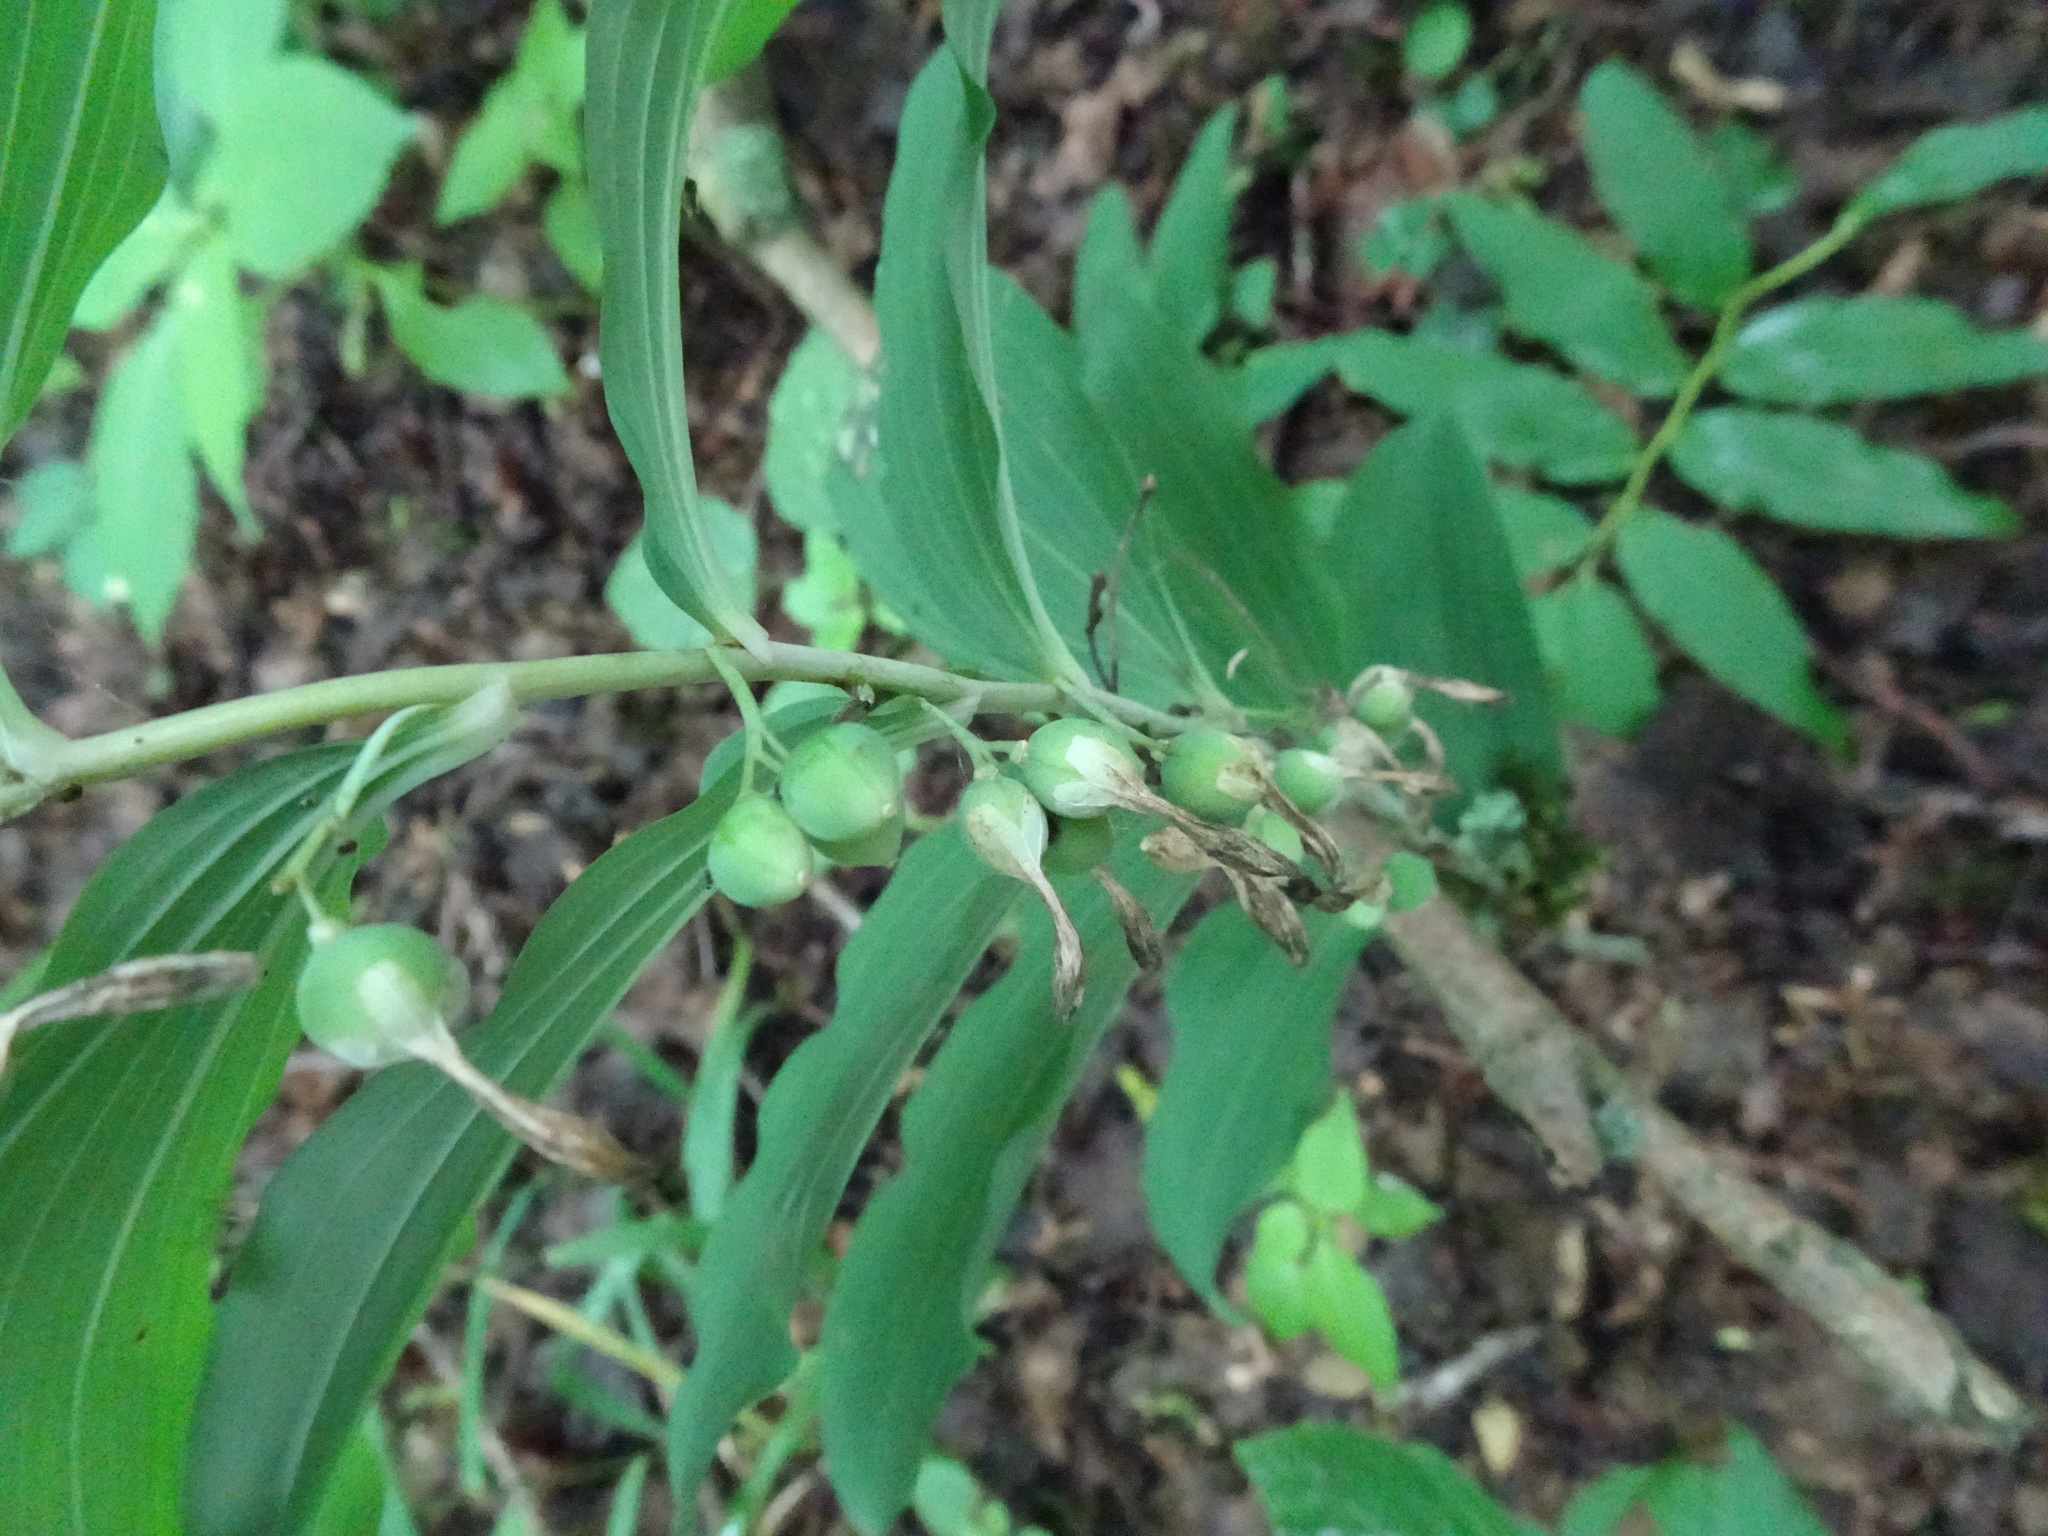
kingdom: Plantae
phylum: Tracheophyta
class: Liliopsida
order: Asparagales
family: Asparagaceae
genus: Polygonatum
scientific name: Polygonatum multiflorum
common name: Solomon's-seal
